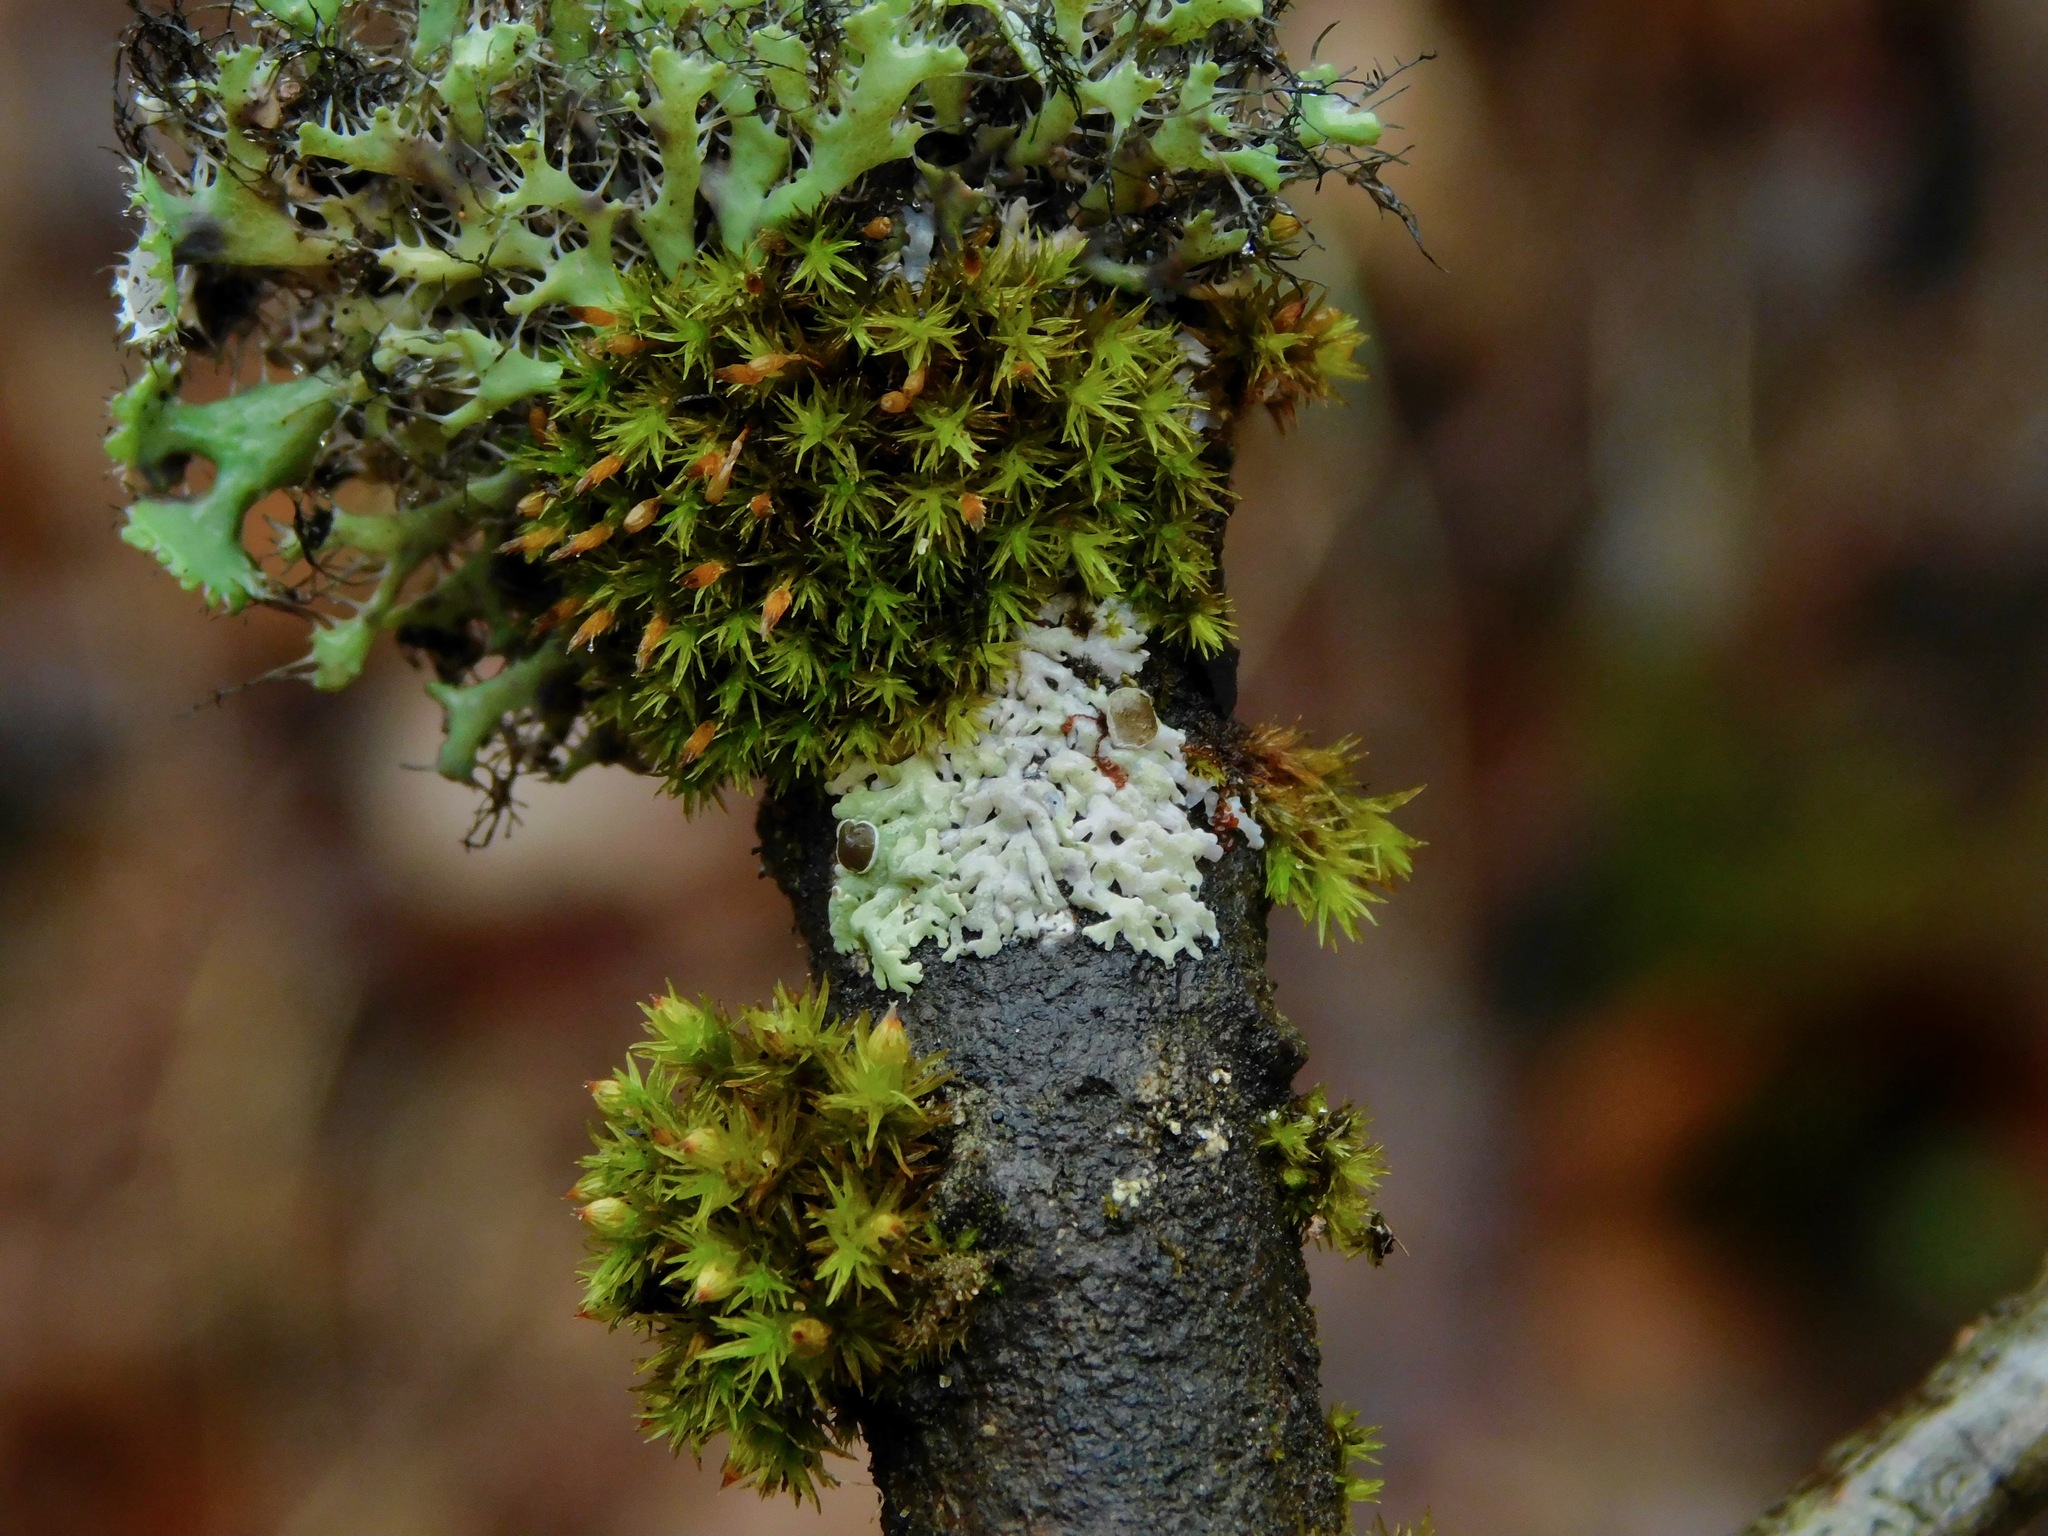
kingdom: Fungi
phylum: Ascomycota
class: Lecanoromycetes
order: Caliciales
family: Physciaceae
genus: Physcia
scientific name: Physcia pumilior
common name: Lesser gray legs
